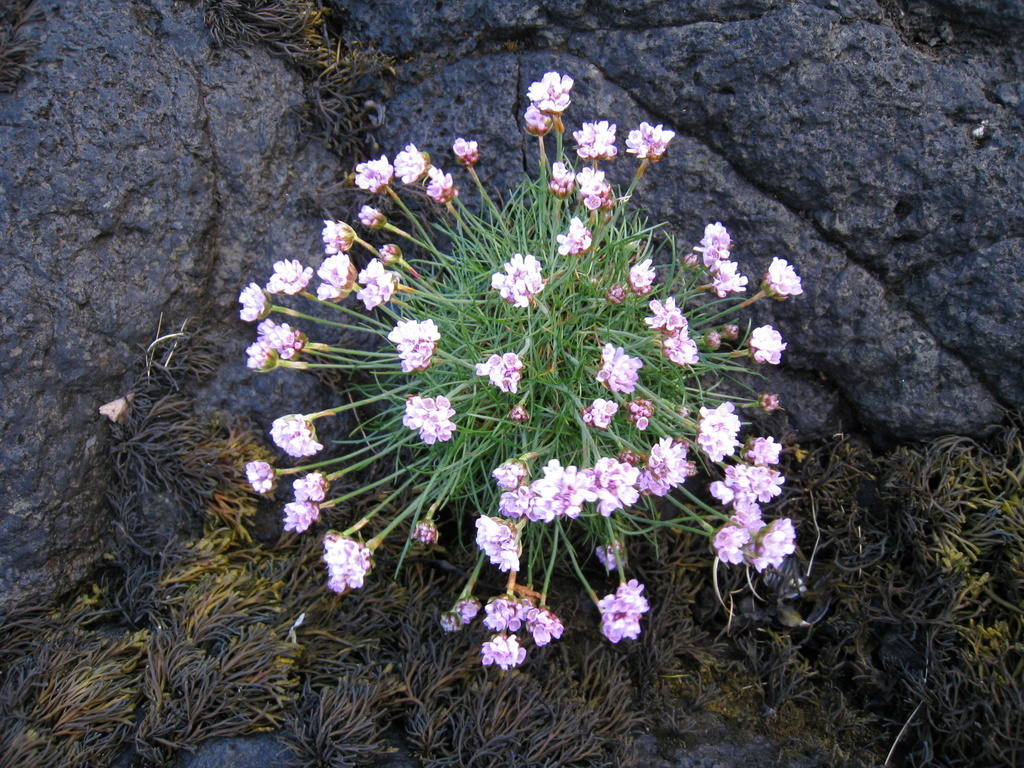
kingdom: Plantae
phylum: Tracheophyta
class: Magnoliopsida
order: Caryophyllales
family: Plumbaginaceae
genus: Armeria
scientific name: Armeria maritima
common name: Thrift
